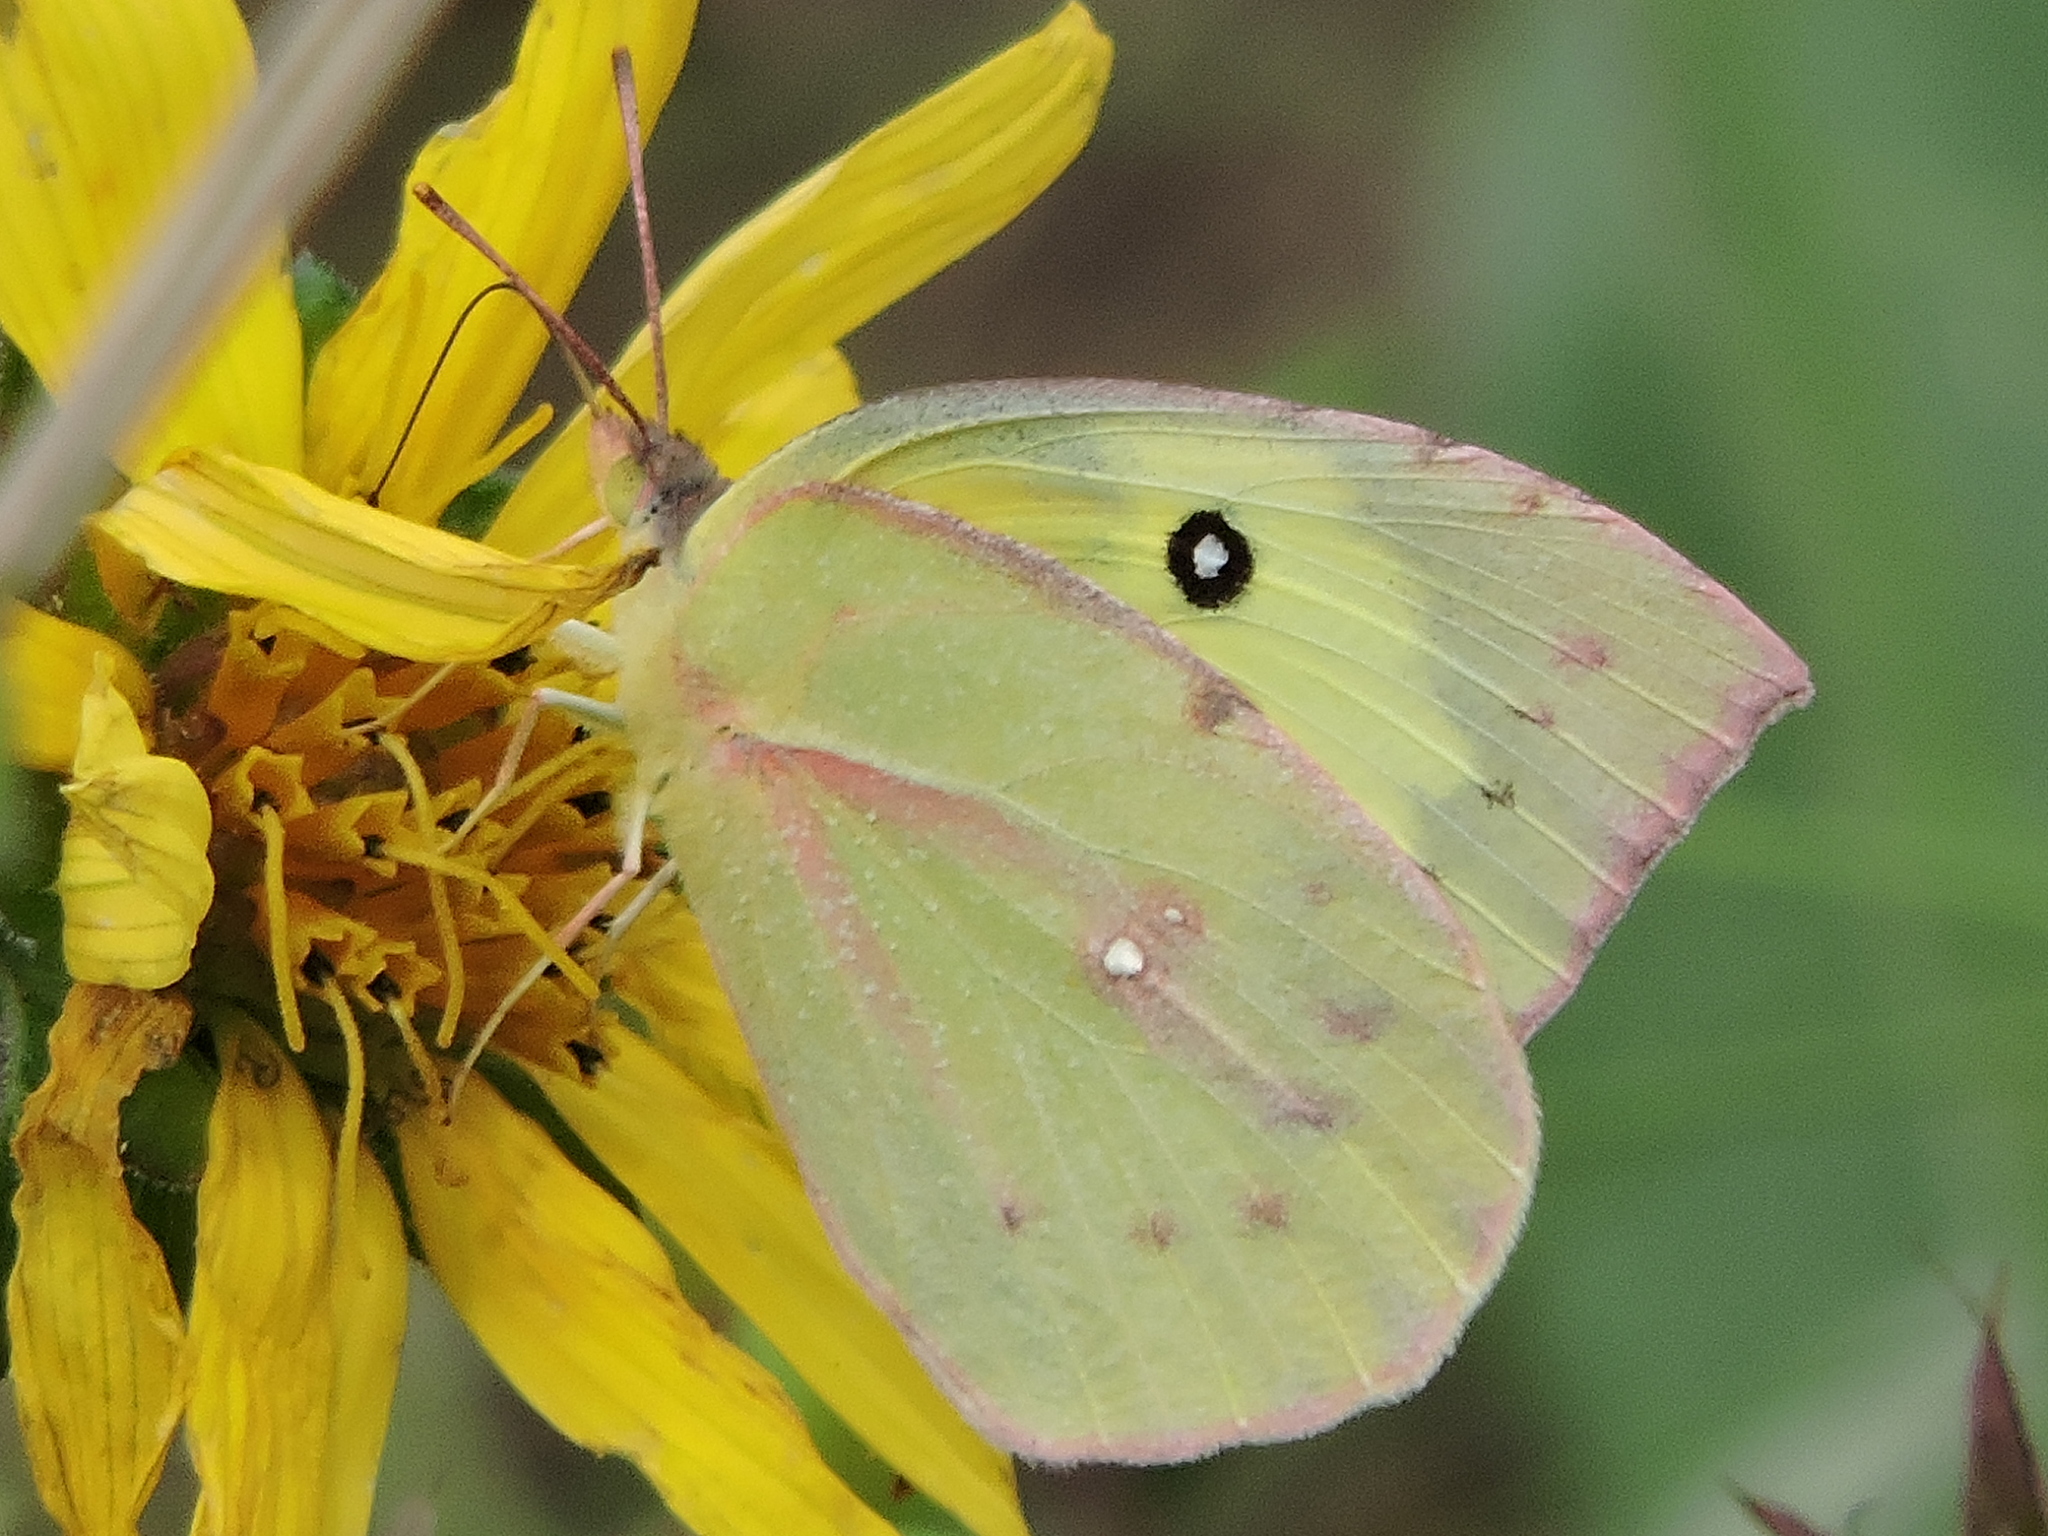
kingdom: Animalia
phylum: Arthropoda
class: Insecta
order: Lepidoptera
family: Pieridae
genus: Zerene
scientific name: Zerene cesonia
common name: Southern dogface
